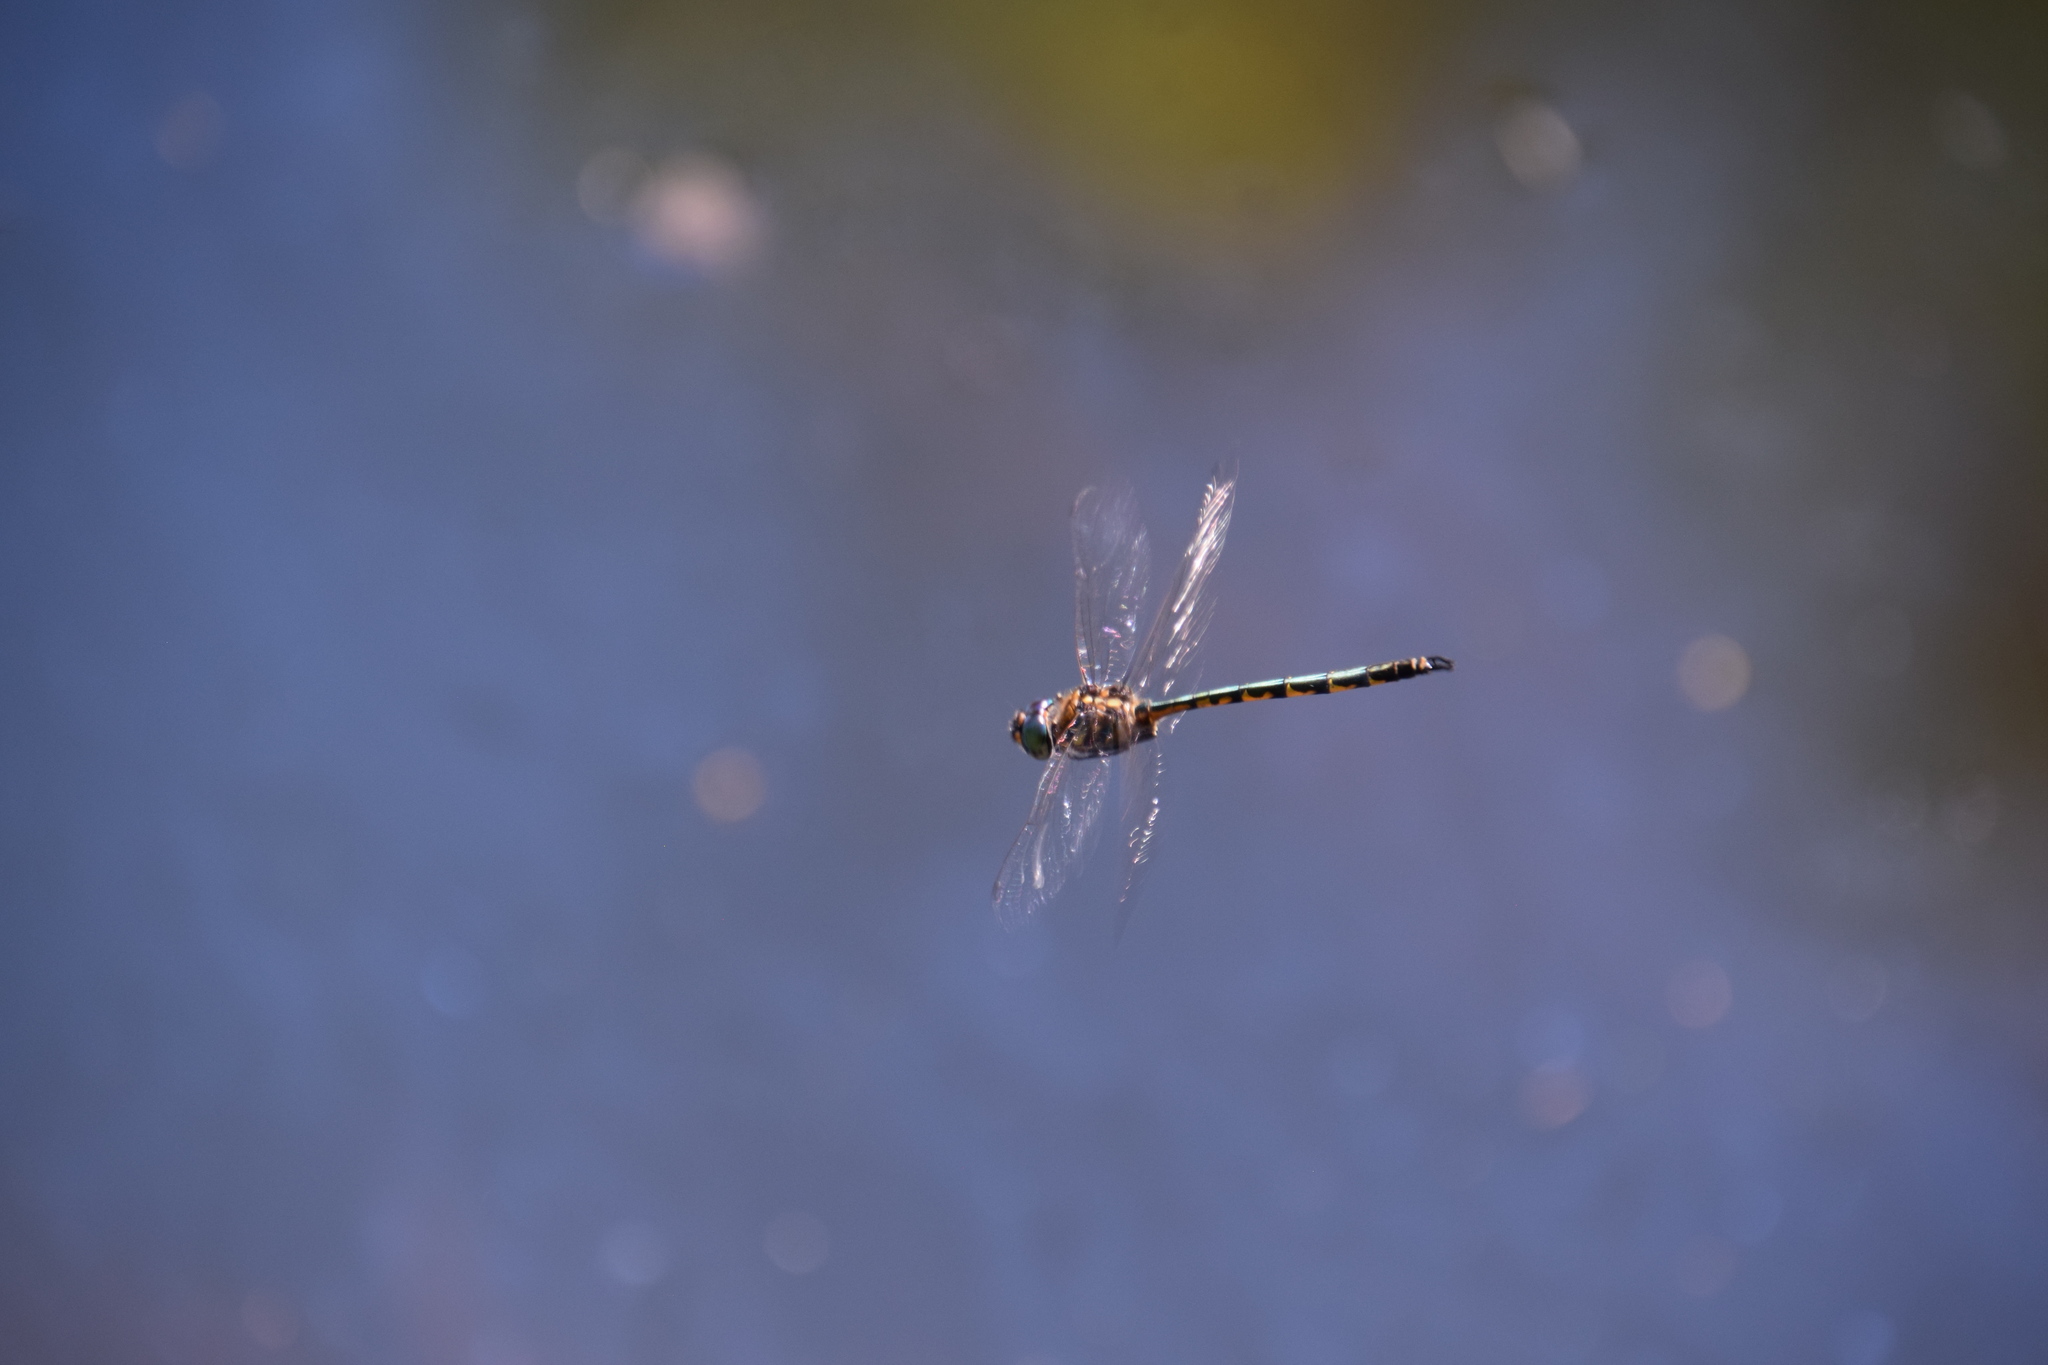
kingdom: Animalia
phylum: Arthropoda
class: Insecta
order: Odonata
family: Corduliidae
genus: Hemicordulia
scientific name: Hemicordulia australiae
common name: Sentry dragonfly
